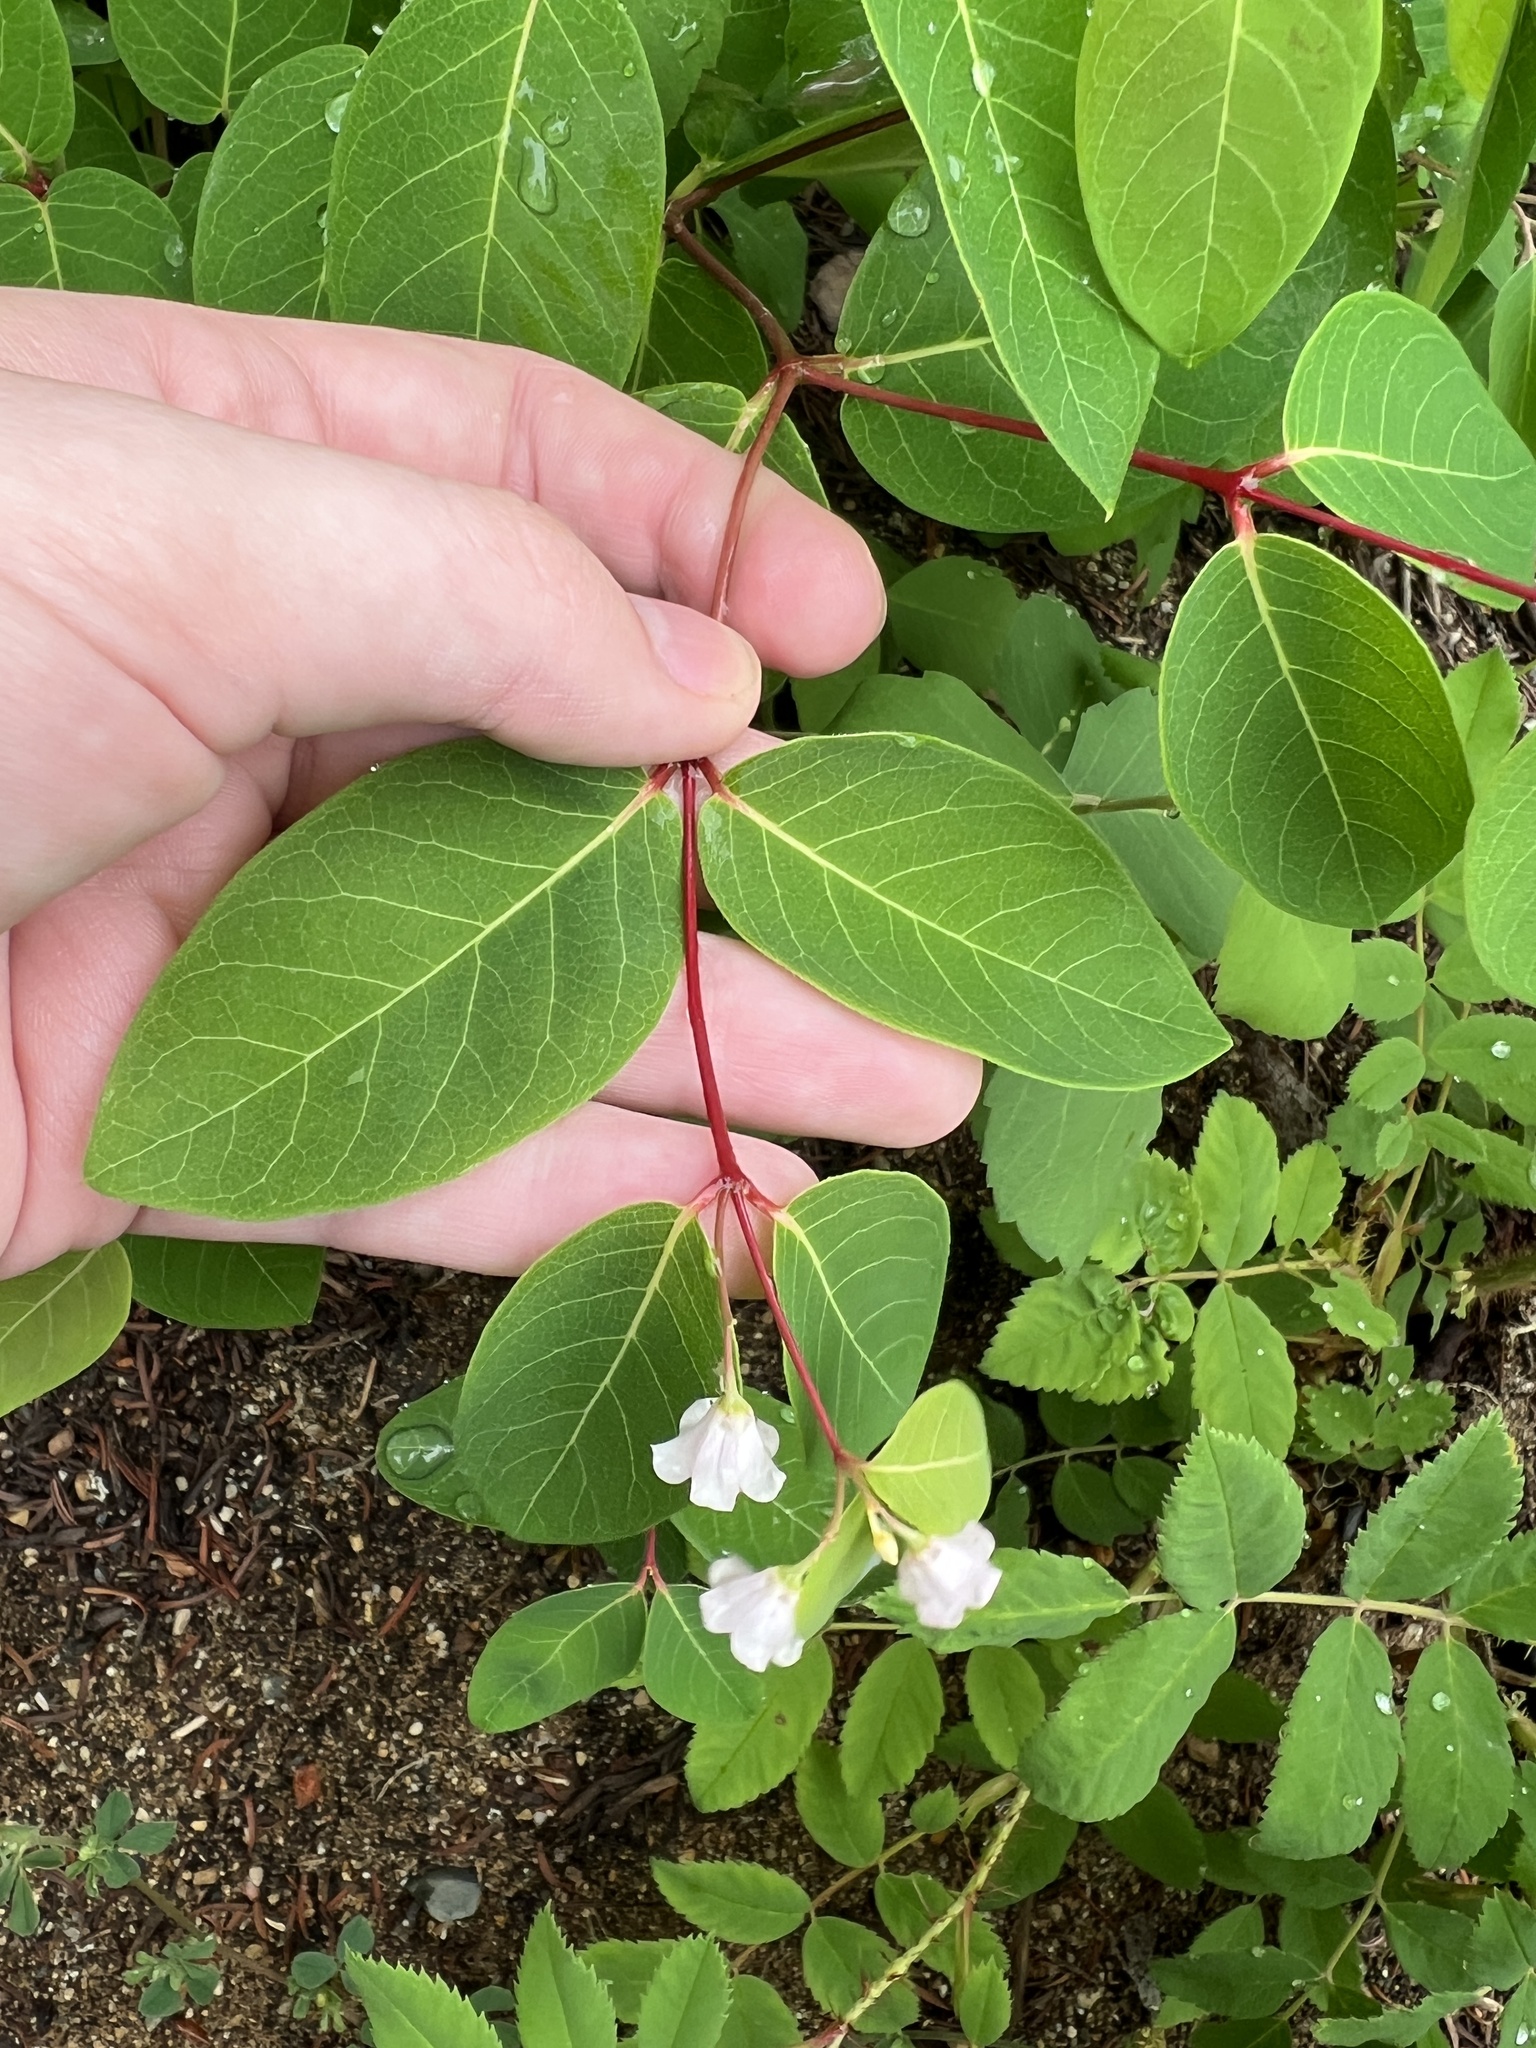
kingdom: Plantae
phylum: Tracheophyta
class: Magnoliopsida
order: Gentianales
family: Apocynaceae
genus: Apocynum
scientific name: Apocynum androsaemifolium
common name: Spreading dogbane
